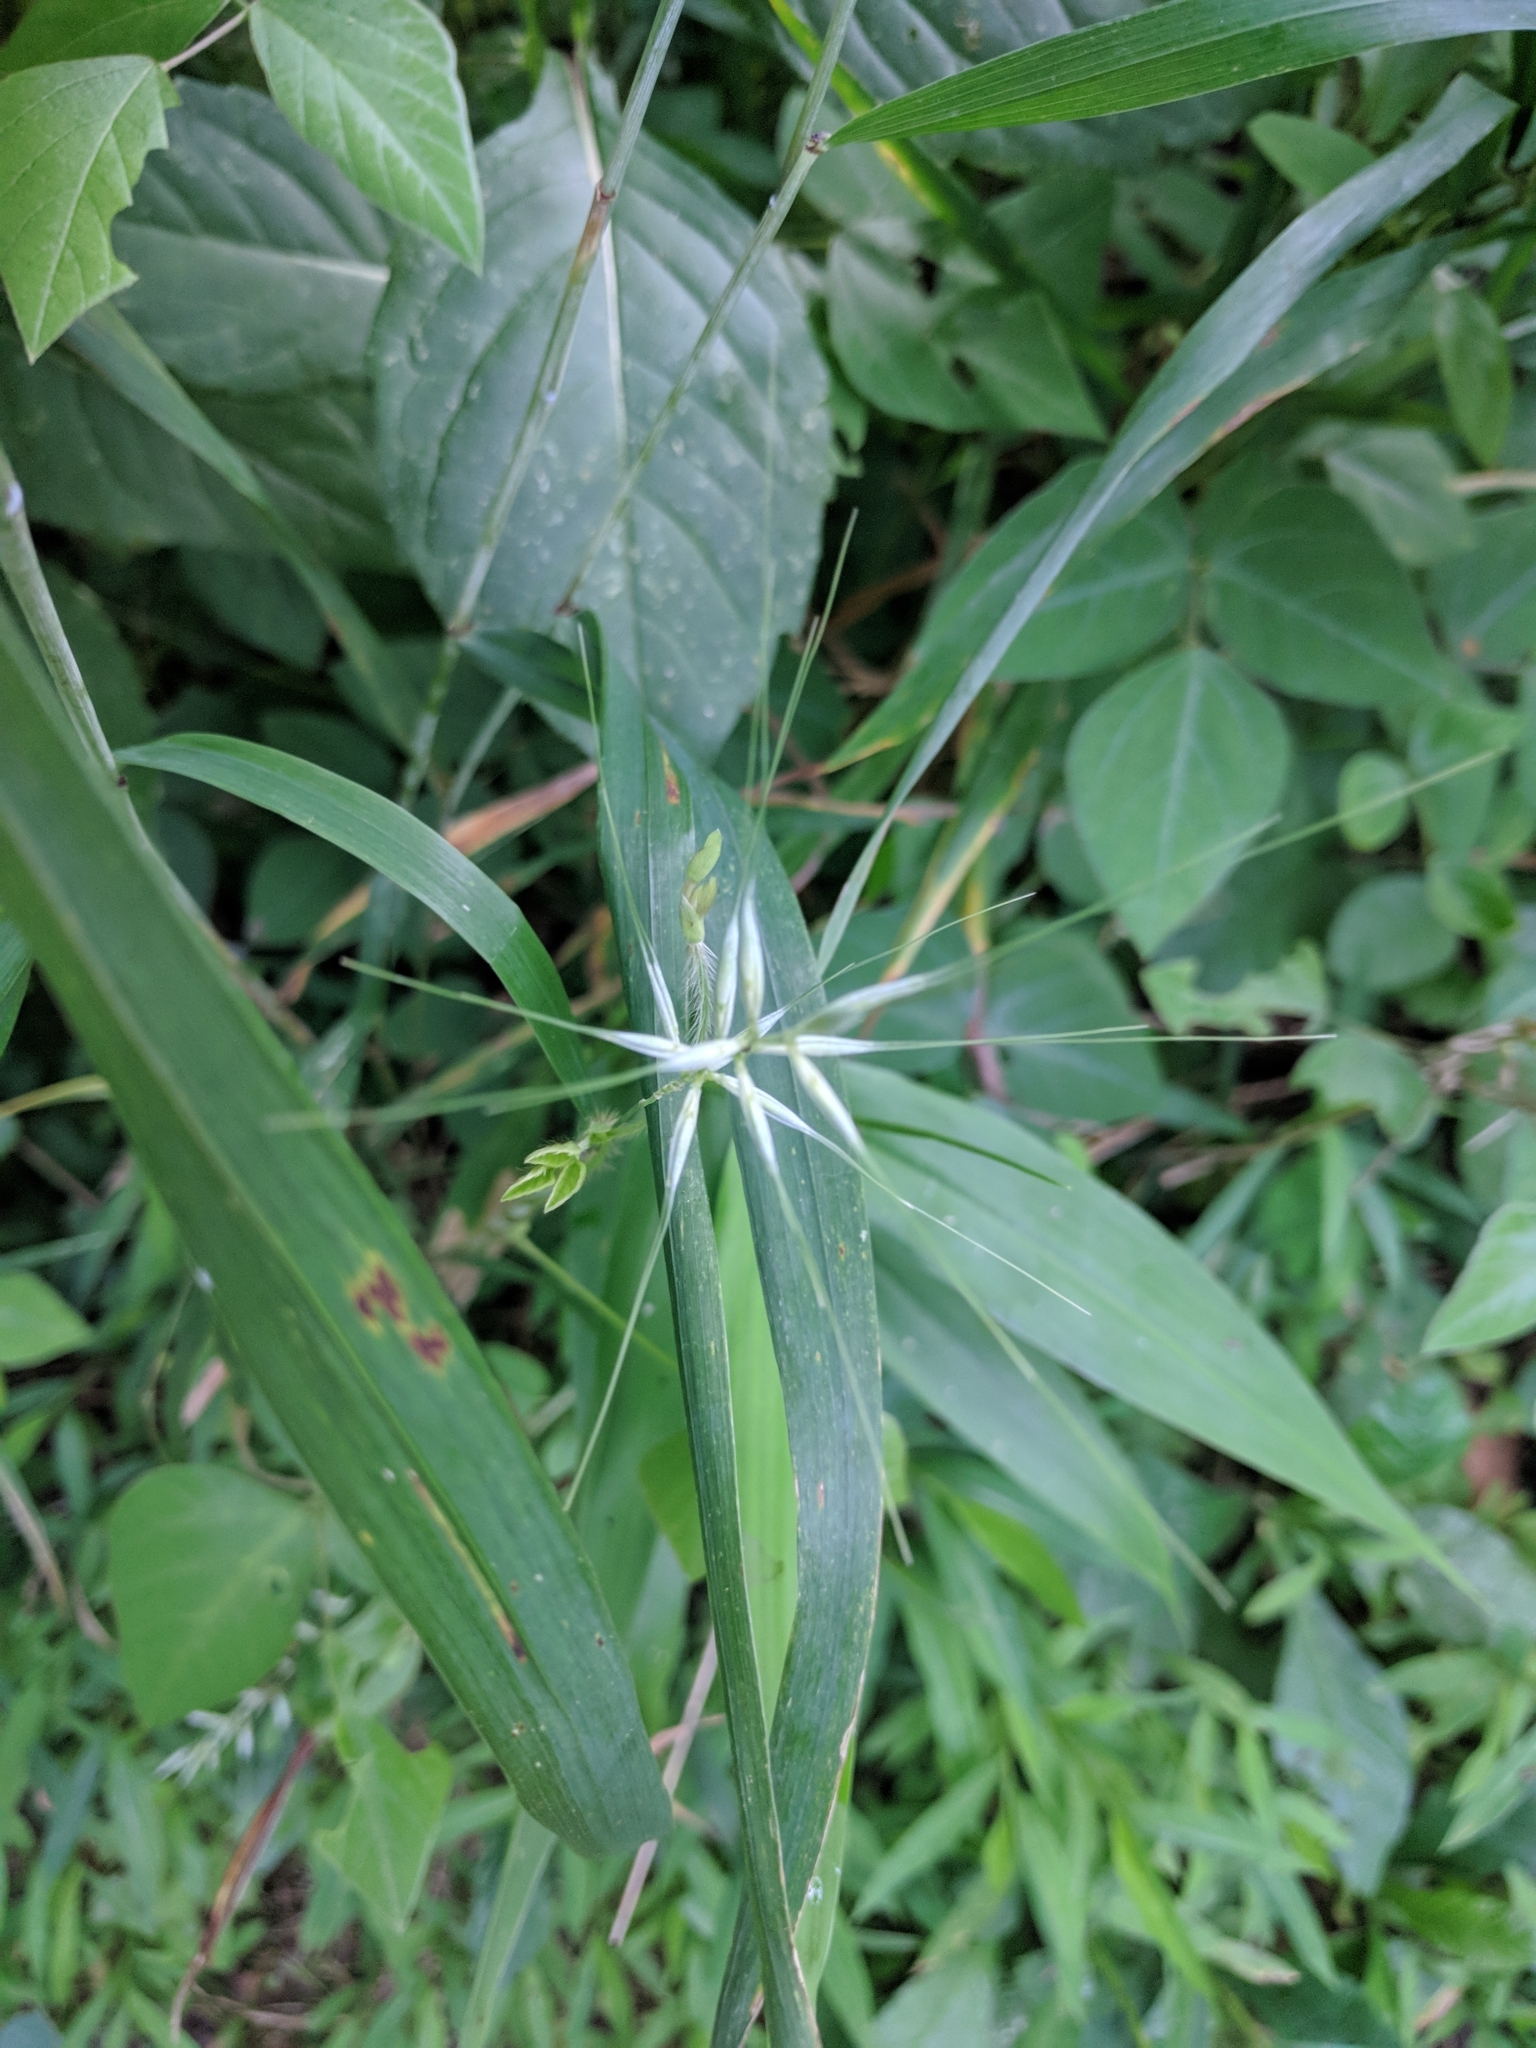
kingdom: Plantae
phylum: Tracheophyta
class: Liliopsida
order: Poales
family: Poaceae
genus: Elymus
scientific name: Elymus hystrix
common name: Bottlebrush grass
